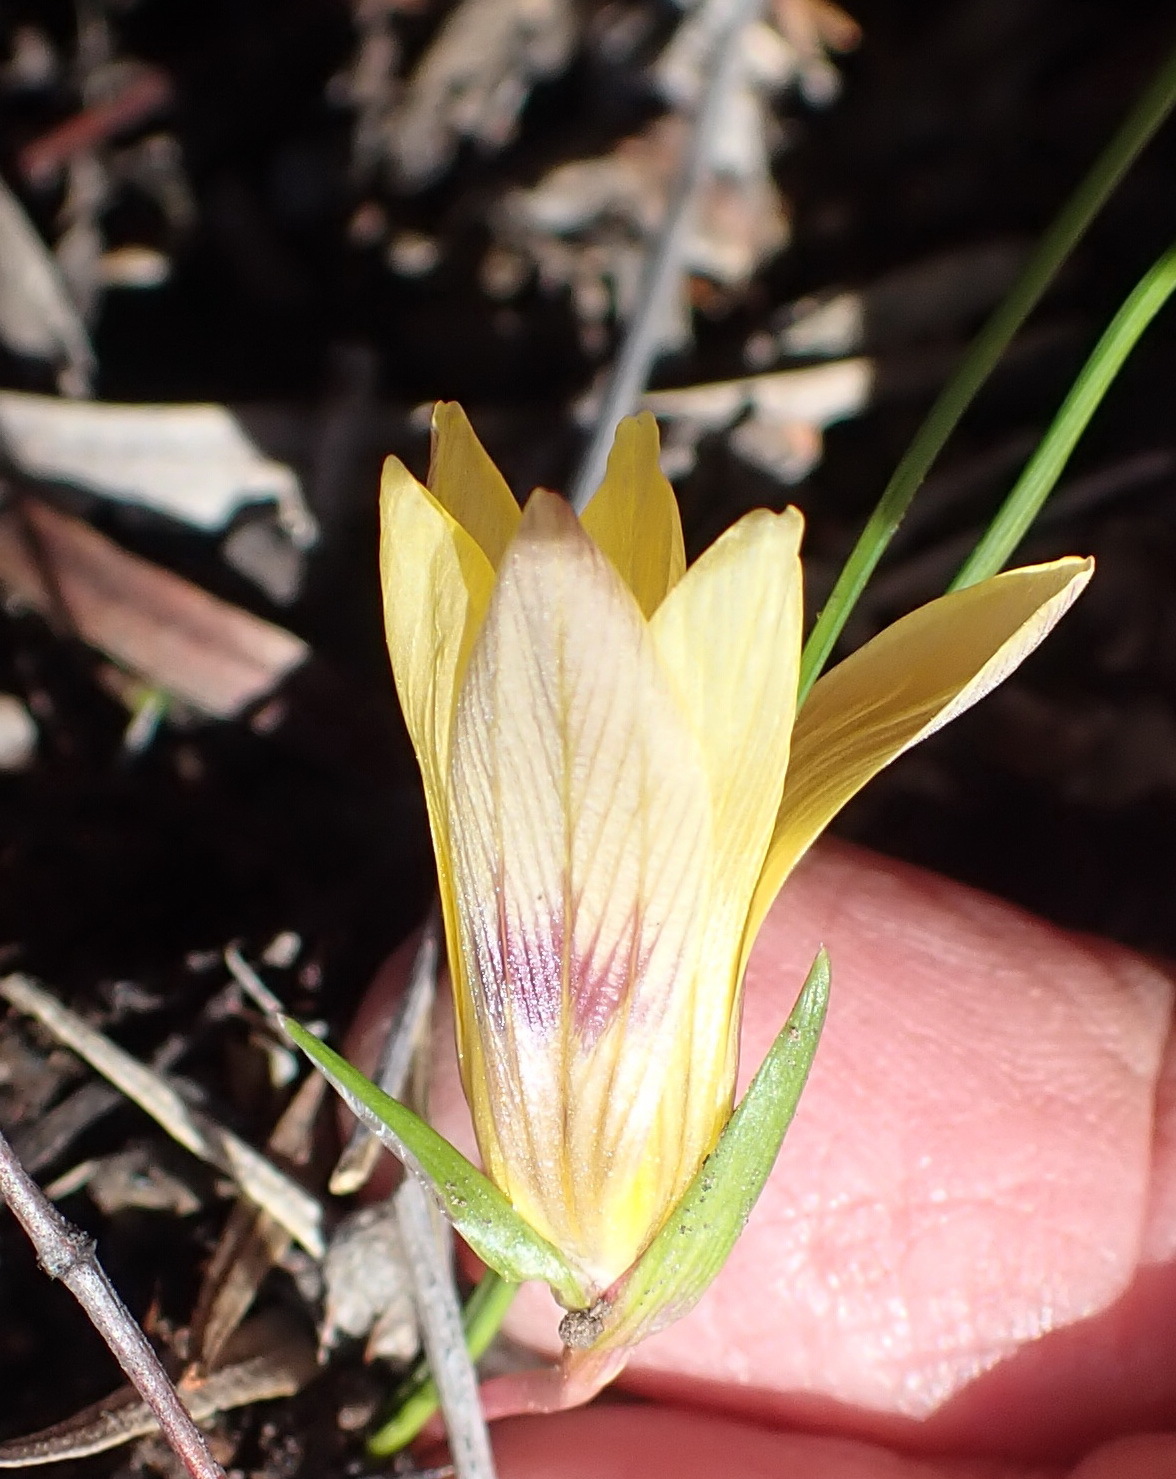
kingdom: Plantae
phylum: Tracheophyta
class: Liliopsida
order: Asparagales
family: Iridaceae
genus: Romulea
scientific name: Romulea austinii
